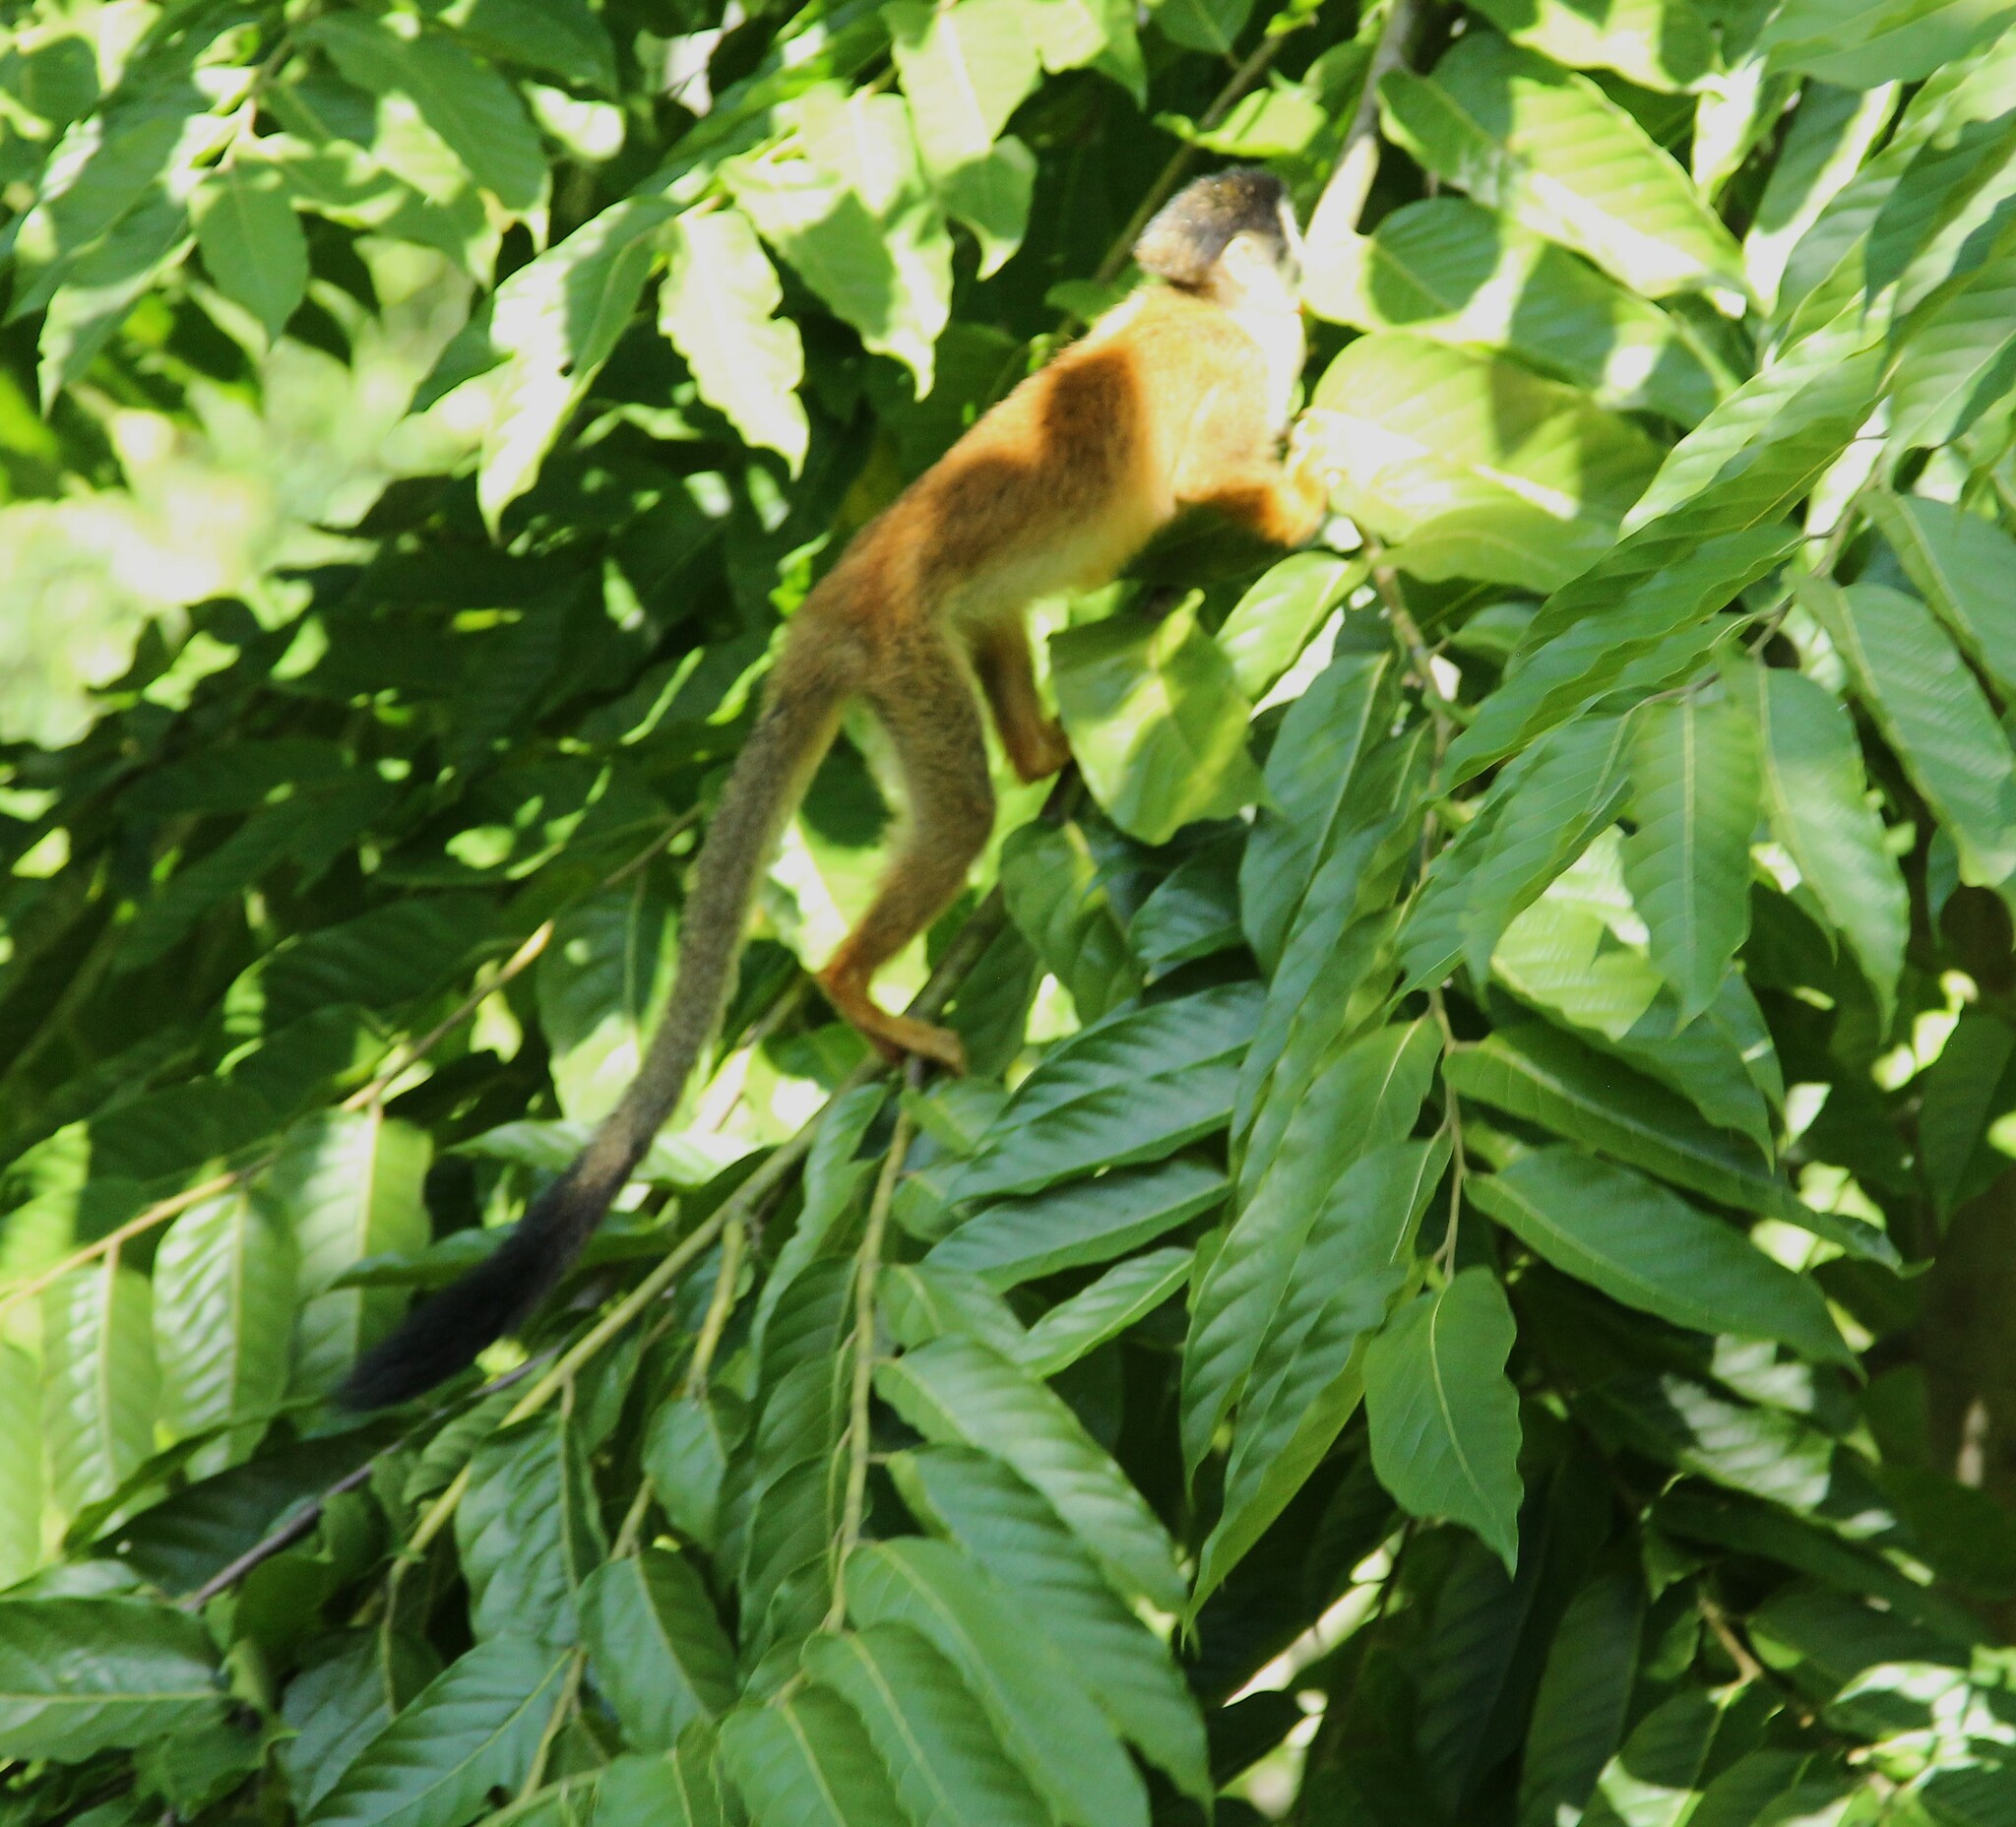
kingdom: Animalia
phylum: Chordata
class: Mammalia
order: Primates
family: Cebidae
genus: Saimiri
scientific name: Saimiri oerstedii
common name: Central american squirrel monkey
